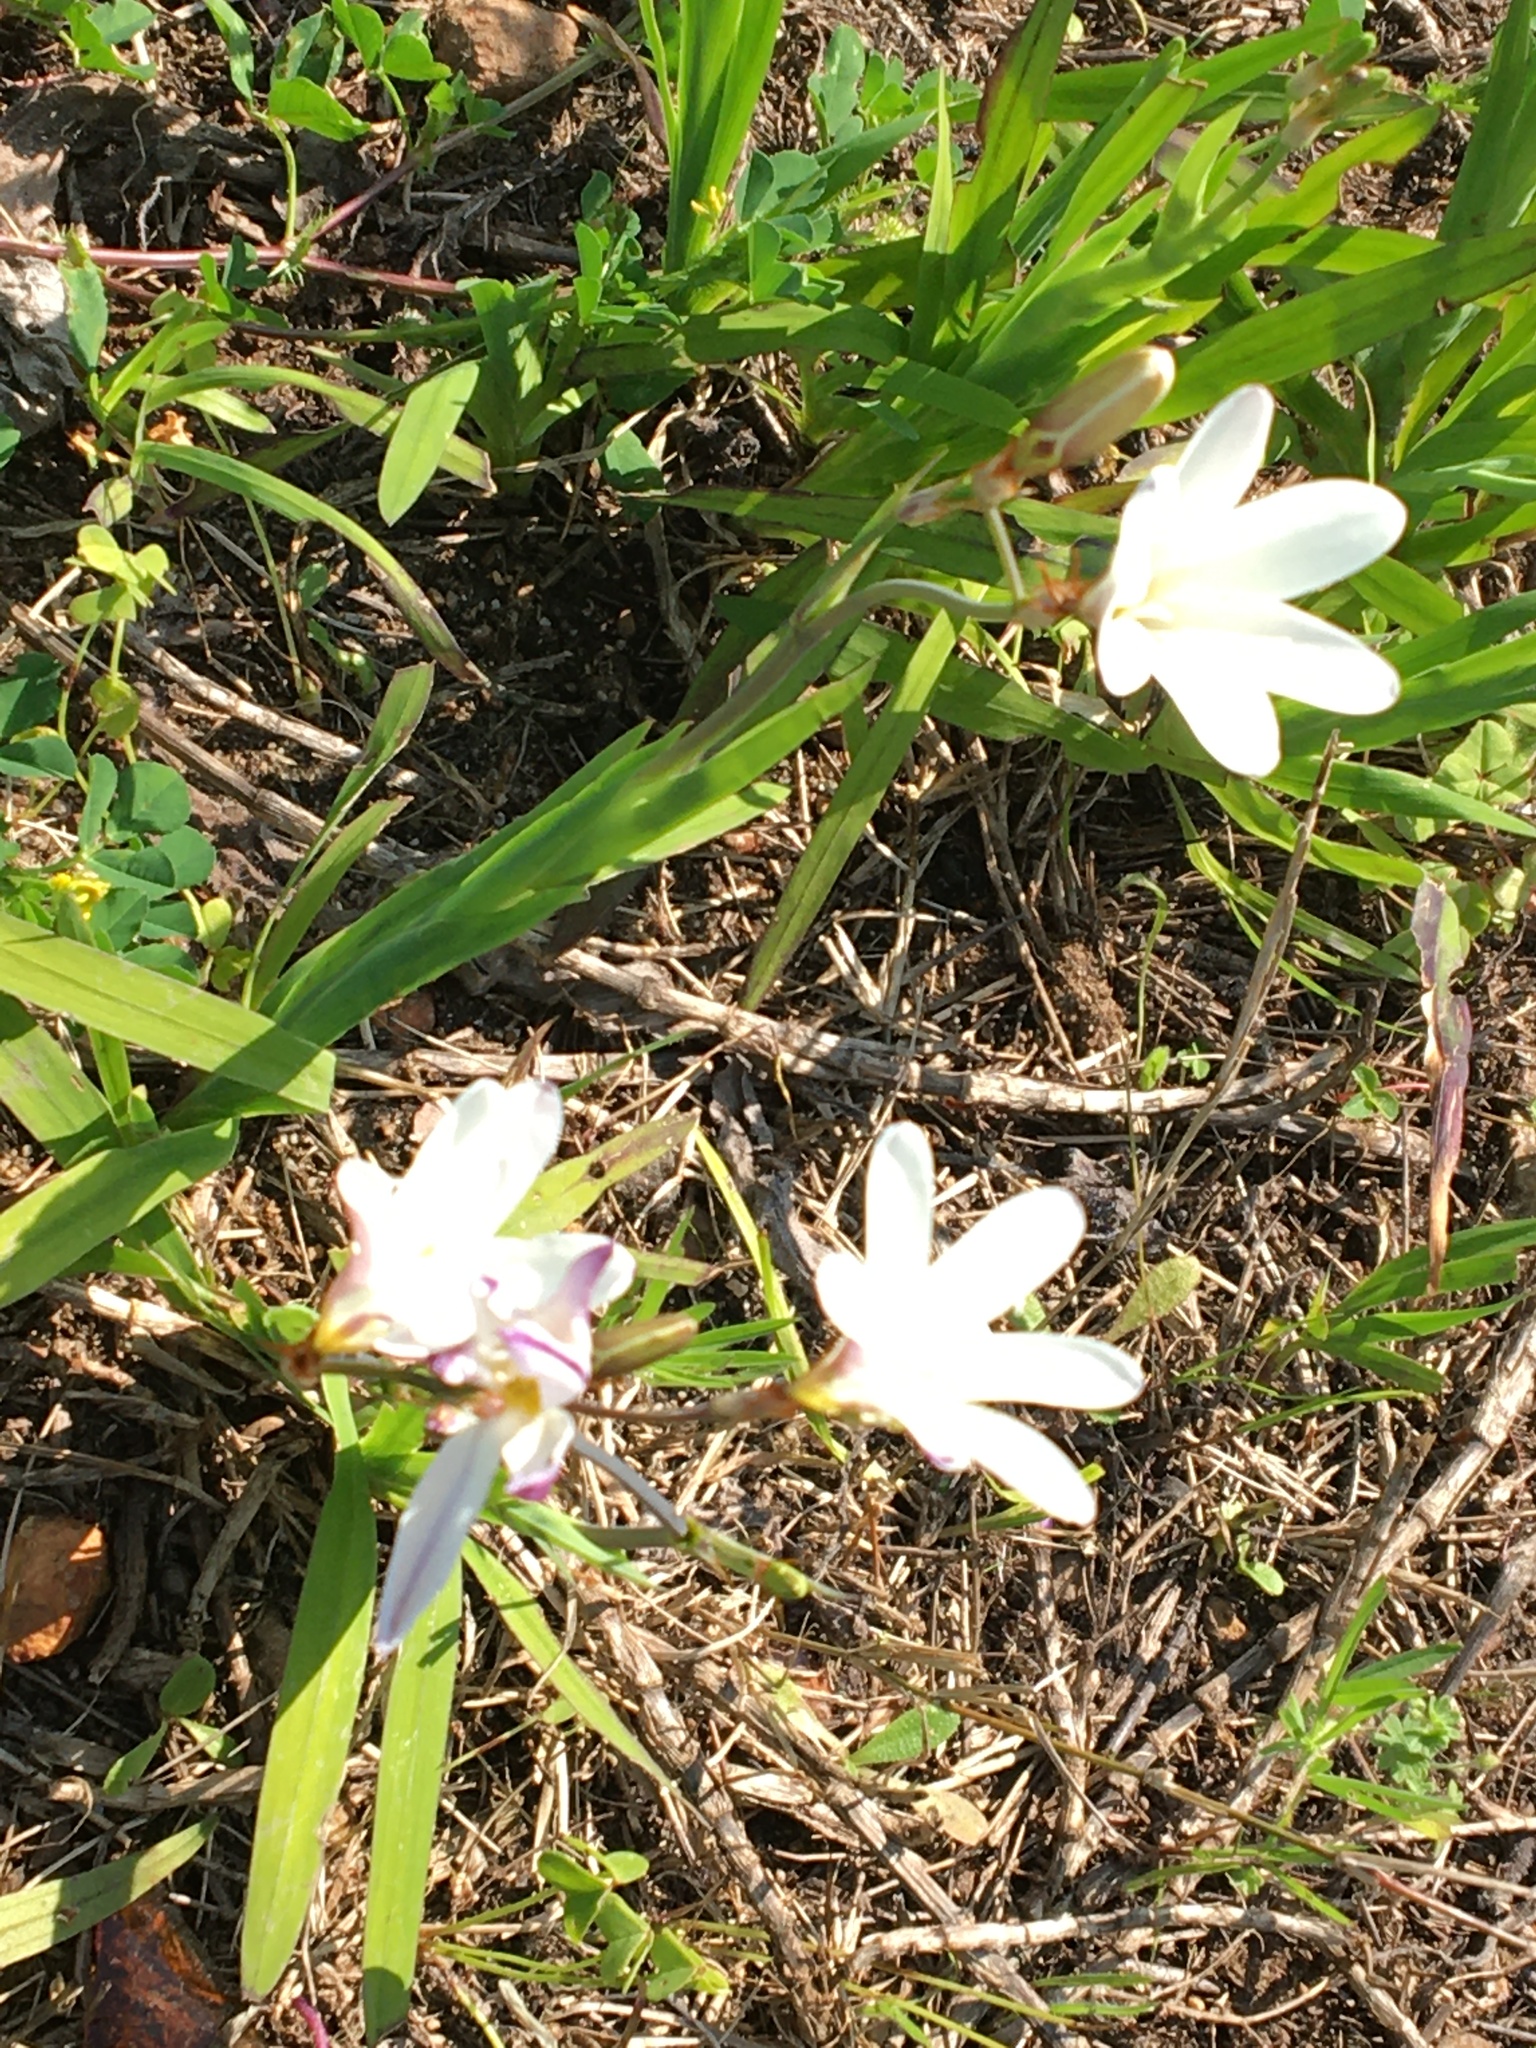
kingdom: Plantae
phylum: Tracheophyta
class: Liliopsida
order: Asparagales
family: Iridaceae
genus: Sparaxis
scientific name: Sparaxis bulbifera
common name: Harlequin-flower
